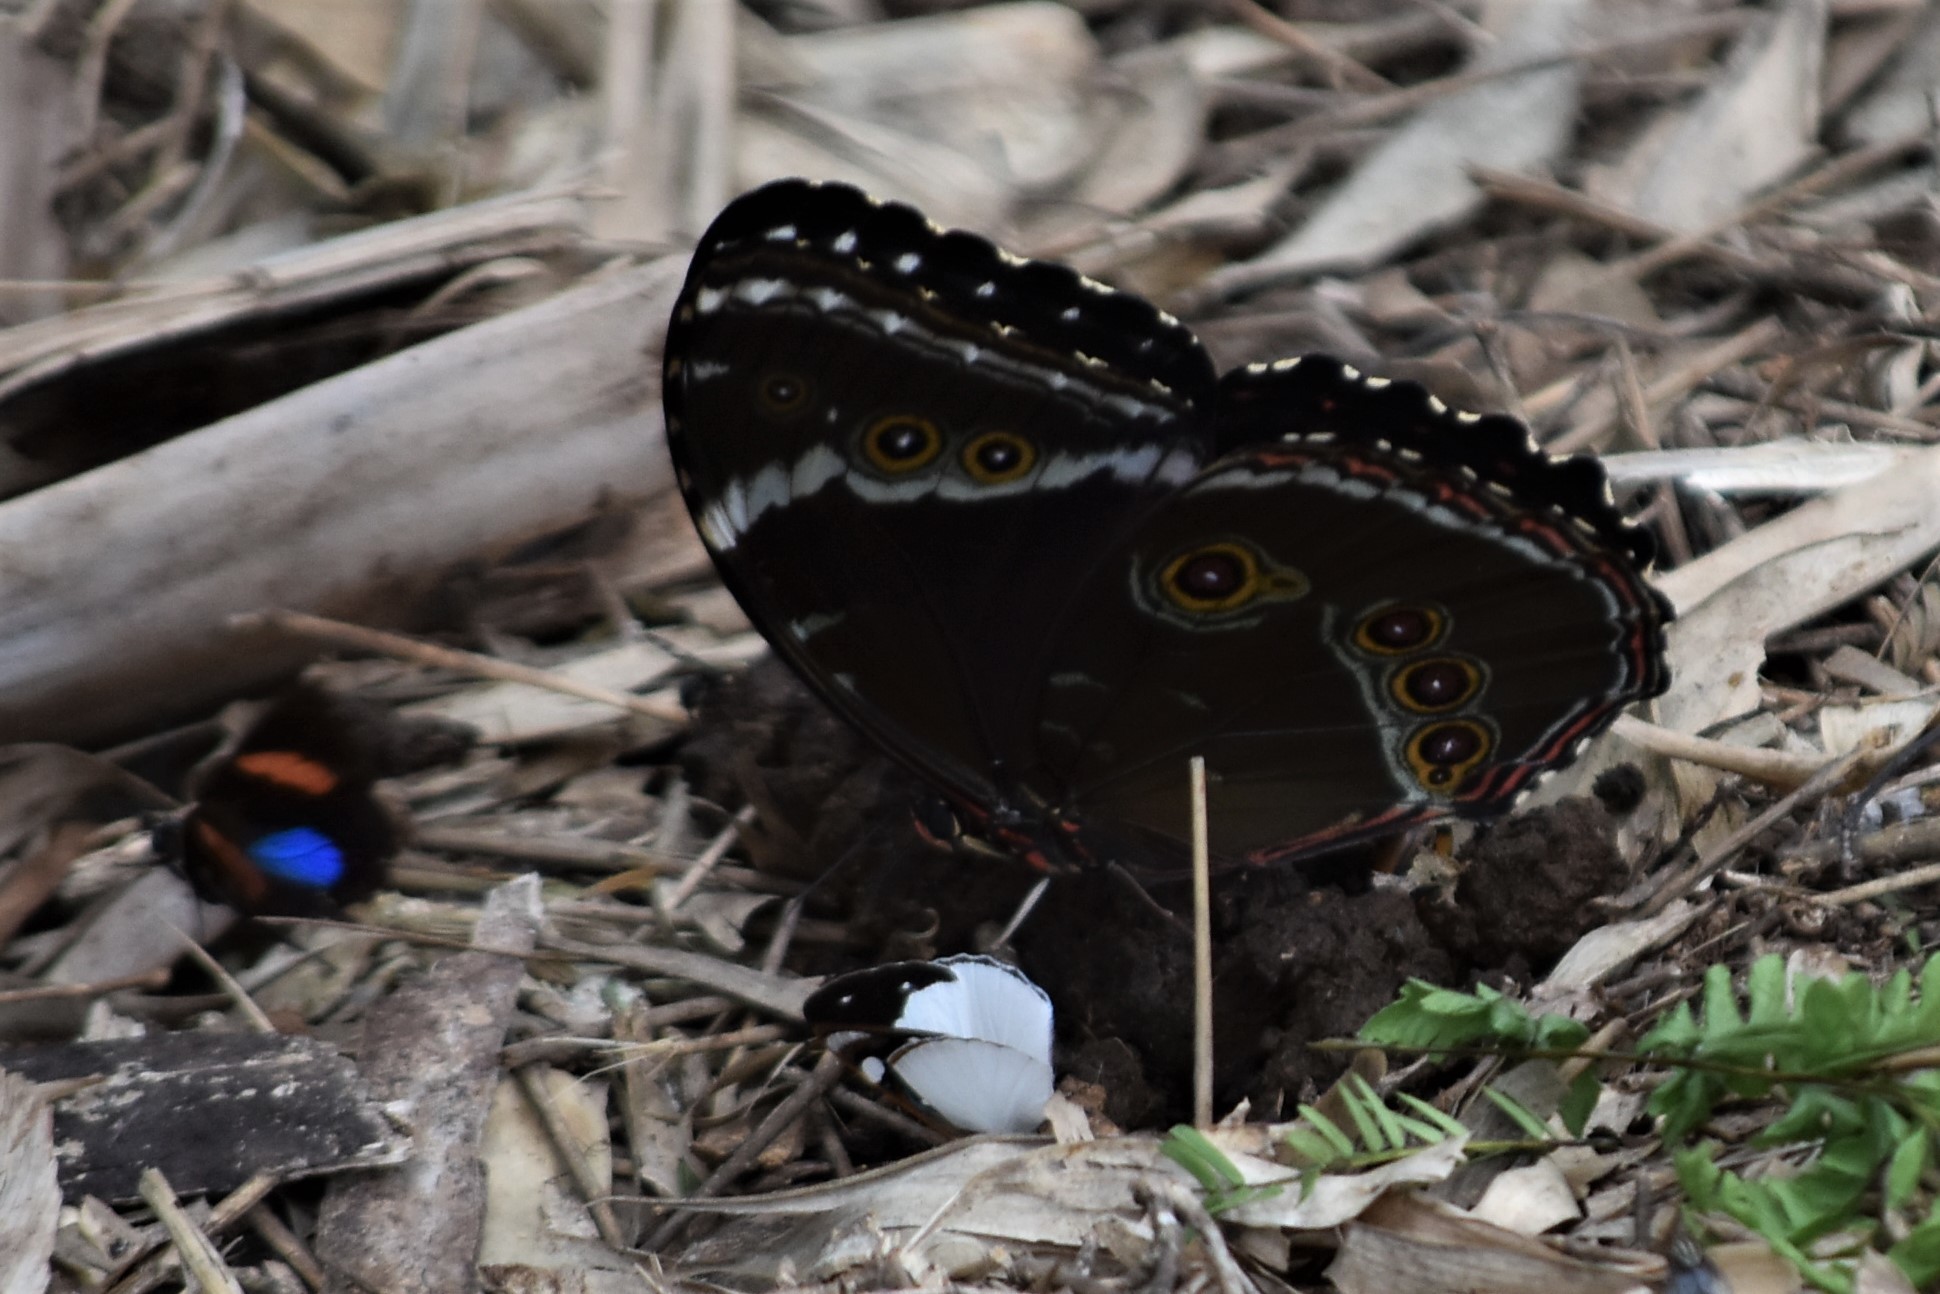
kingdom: Animalia
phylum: Arthropoda
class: Insecta
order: Lepidoptera
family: Nymphalidae
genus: Morpho
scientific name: Morpho helenor
